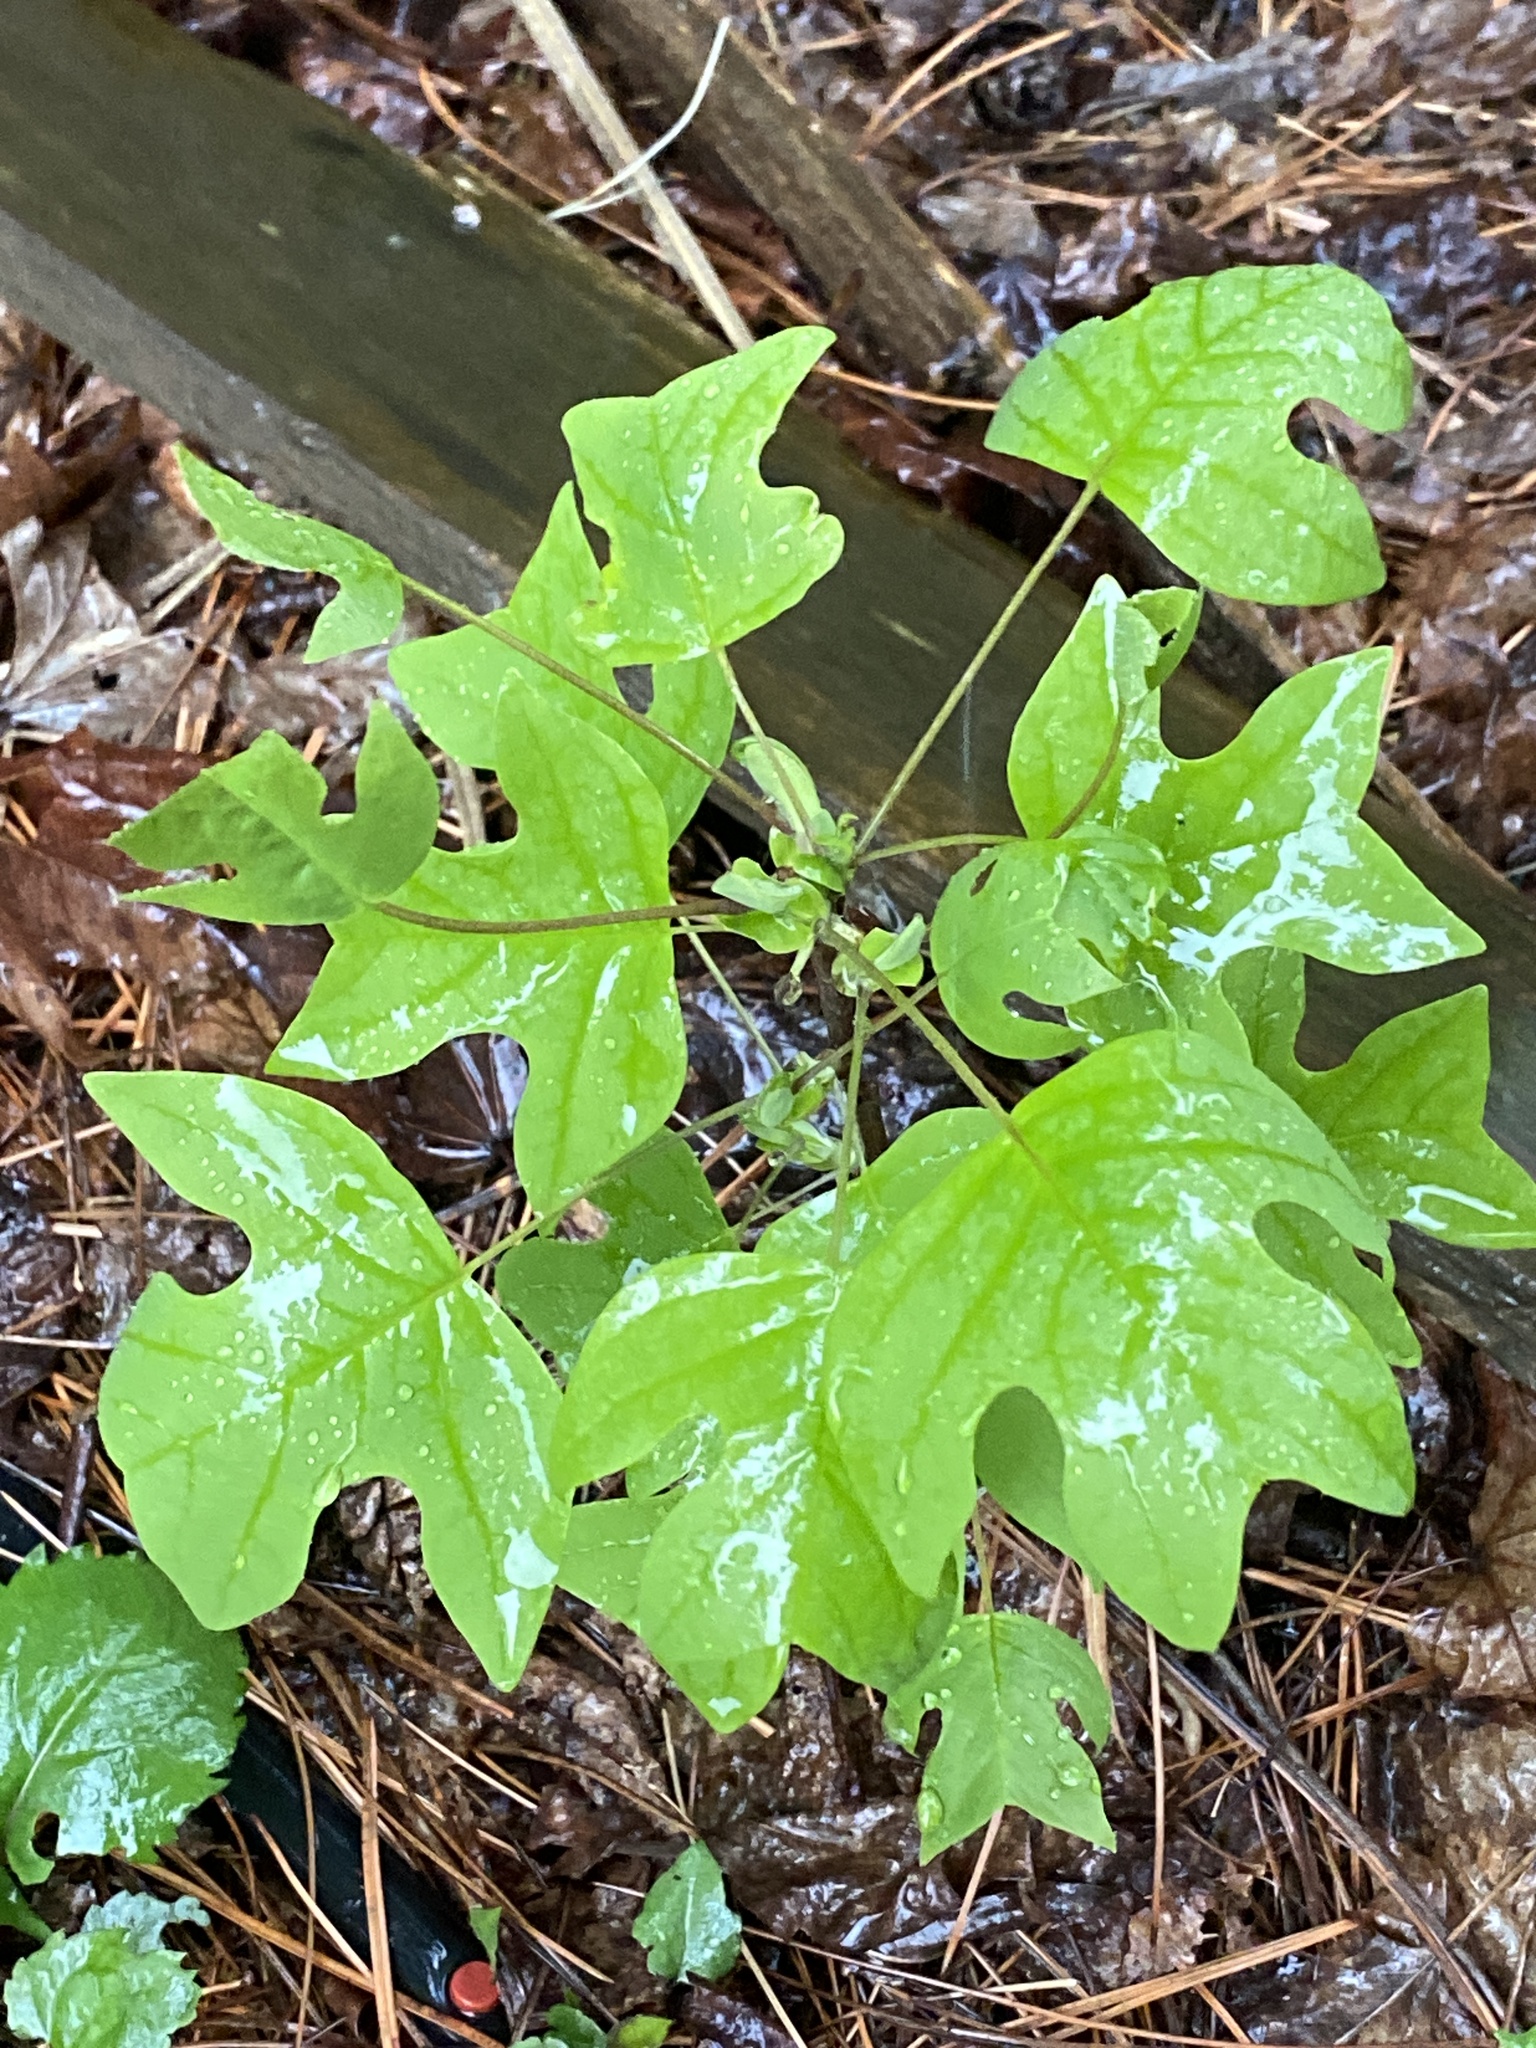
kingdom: Plantae
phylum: Tracheophyta
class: Magnoliopsida
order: Magnoliales
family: Magnoliaceae
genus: Liriodendron
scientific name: Liriodendron tulipifera
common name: Tulip tree
